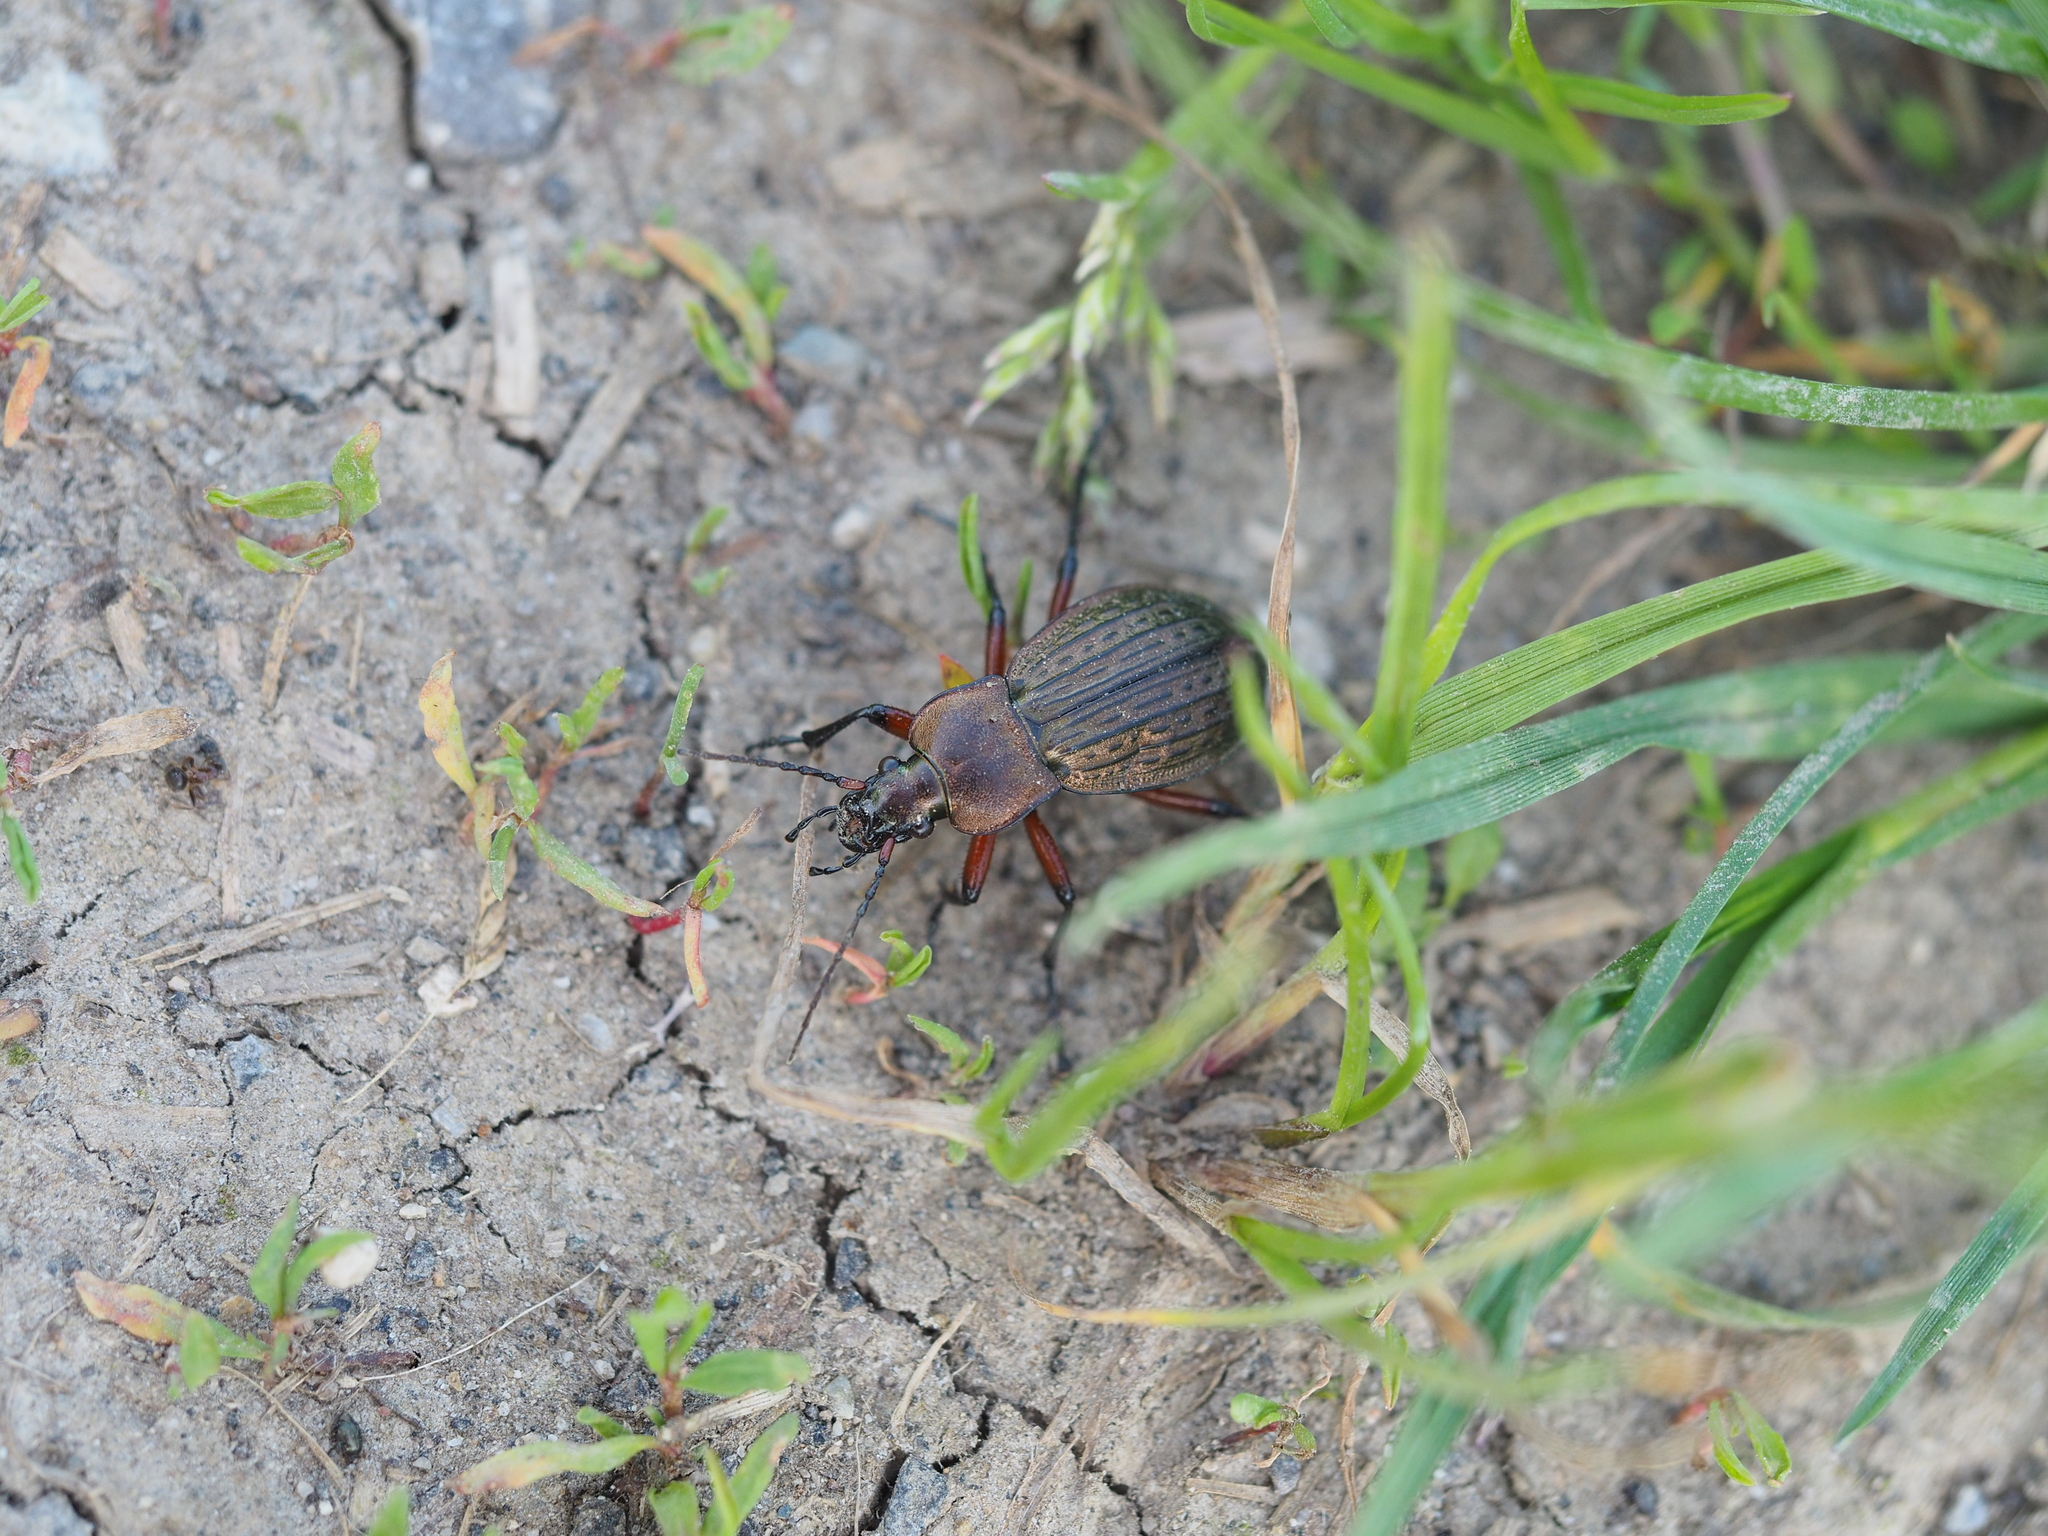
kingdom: Animalia
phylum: Arthropoda
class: Insecta
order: Coleoptera
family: Carabidae
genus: Carabus
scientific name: Carabus cancellatus
